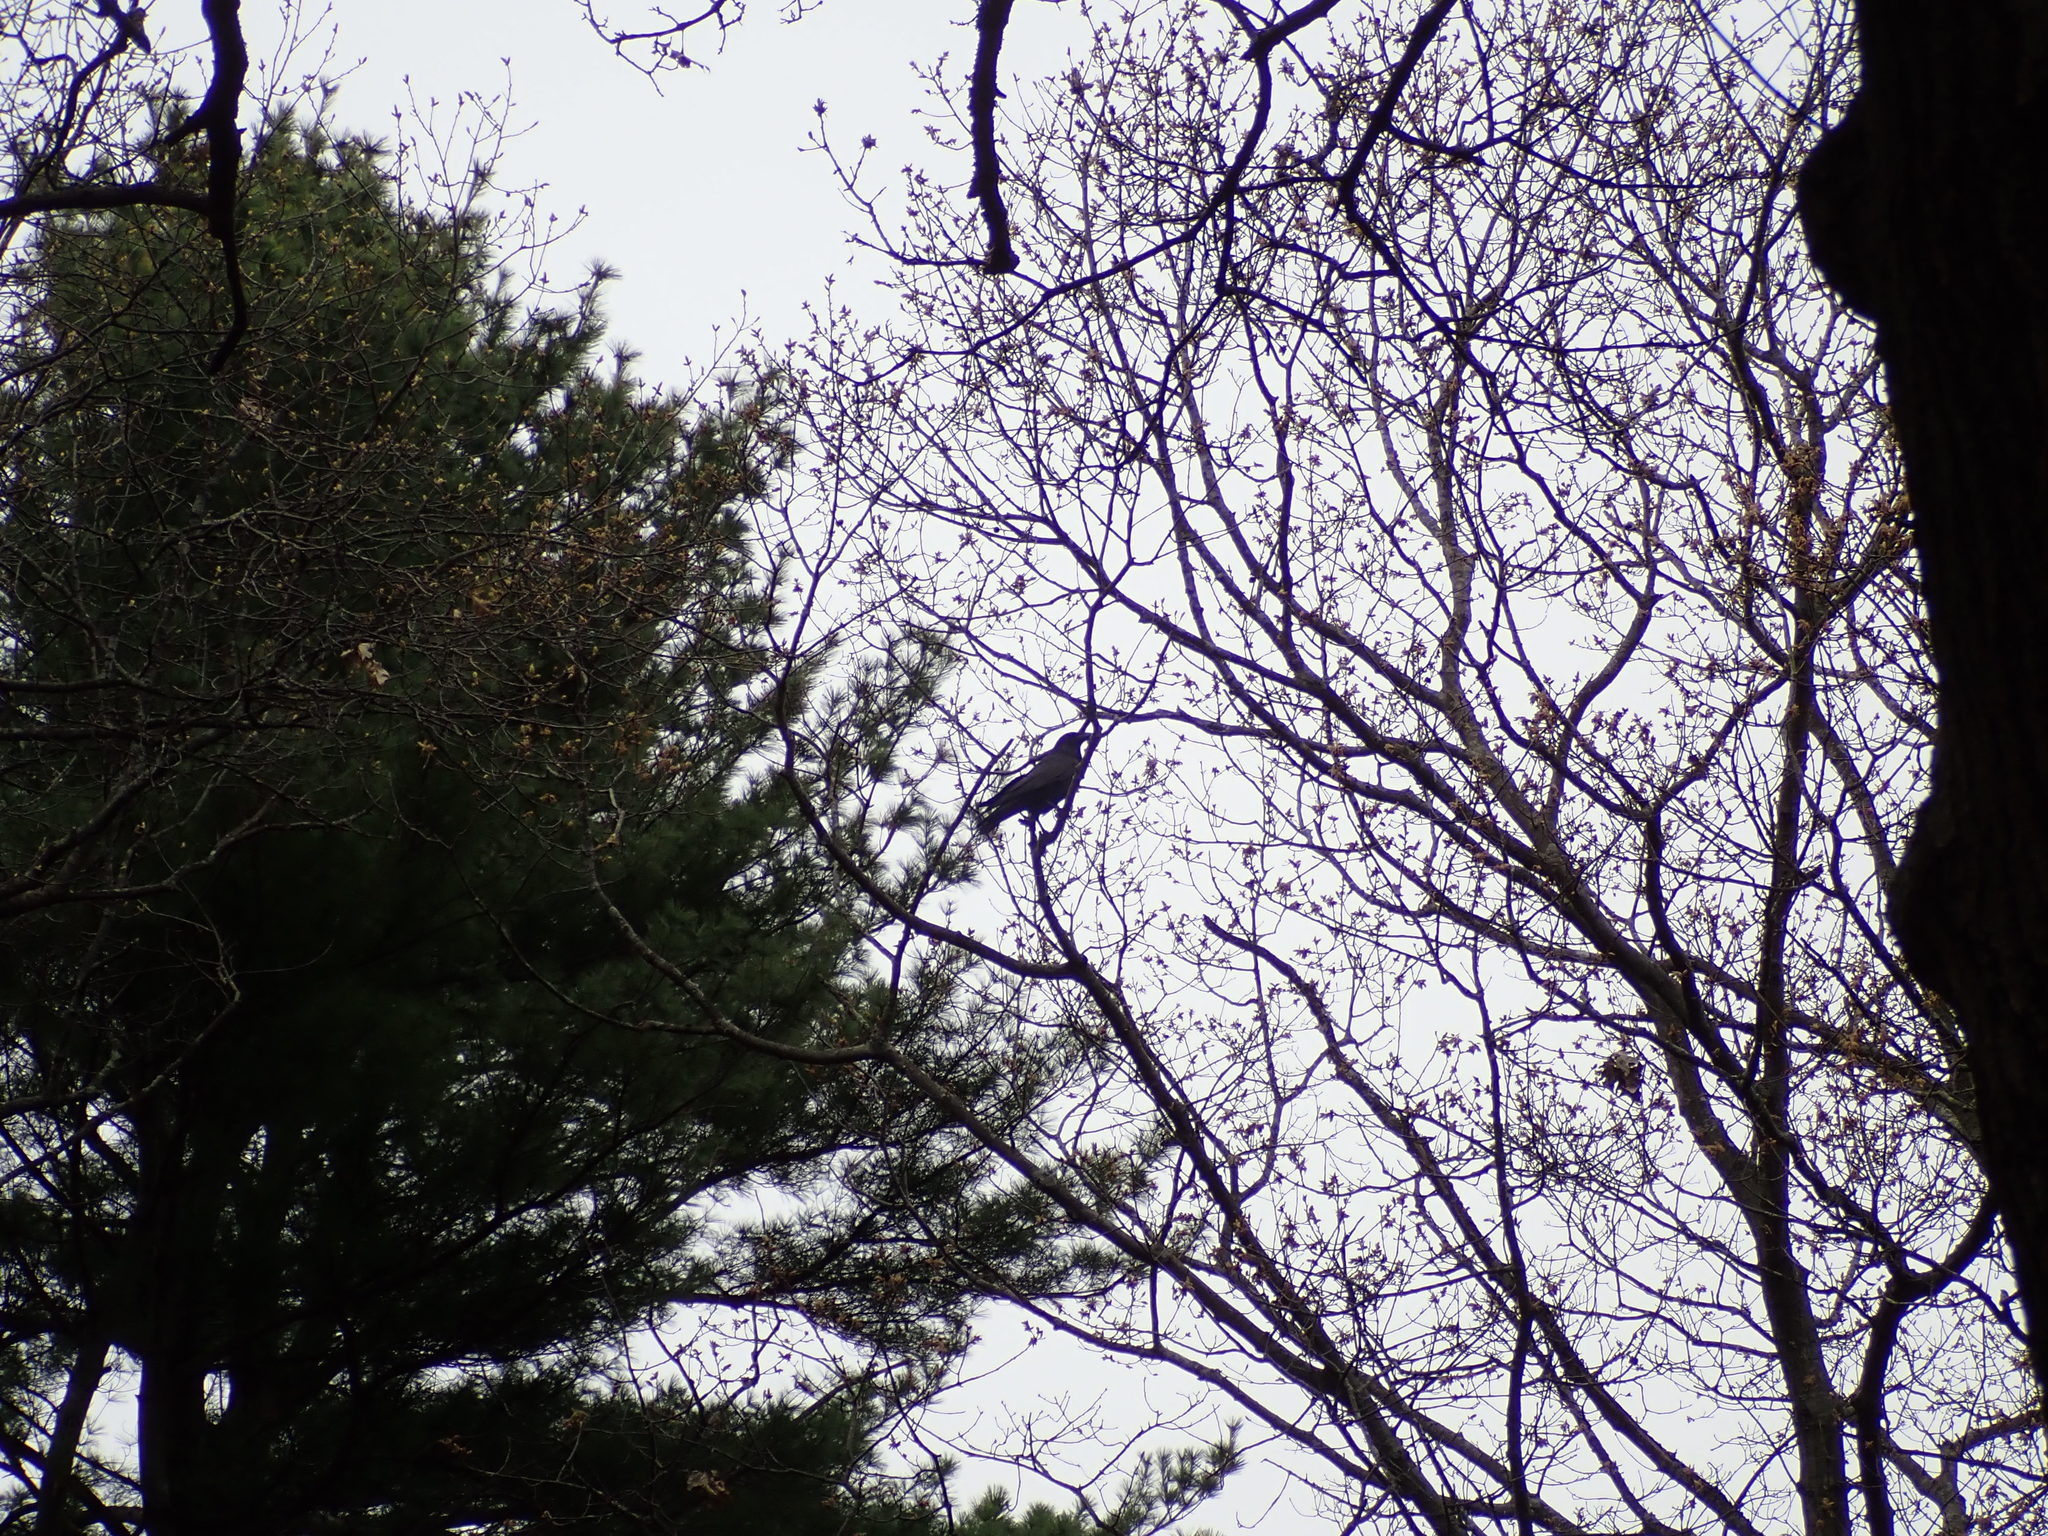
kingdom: Animalia
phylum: Chordata
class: Aves
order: Passeriformes
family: Corvidae
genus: Corvus
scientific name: Corvus corax
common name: Common raven
